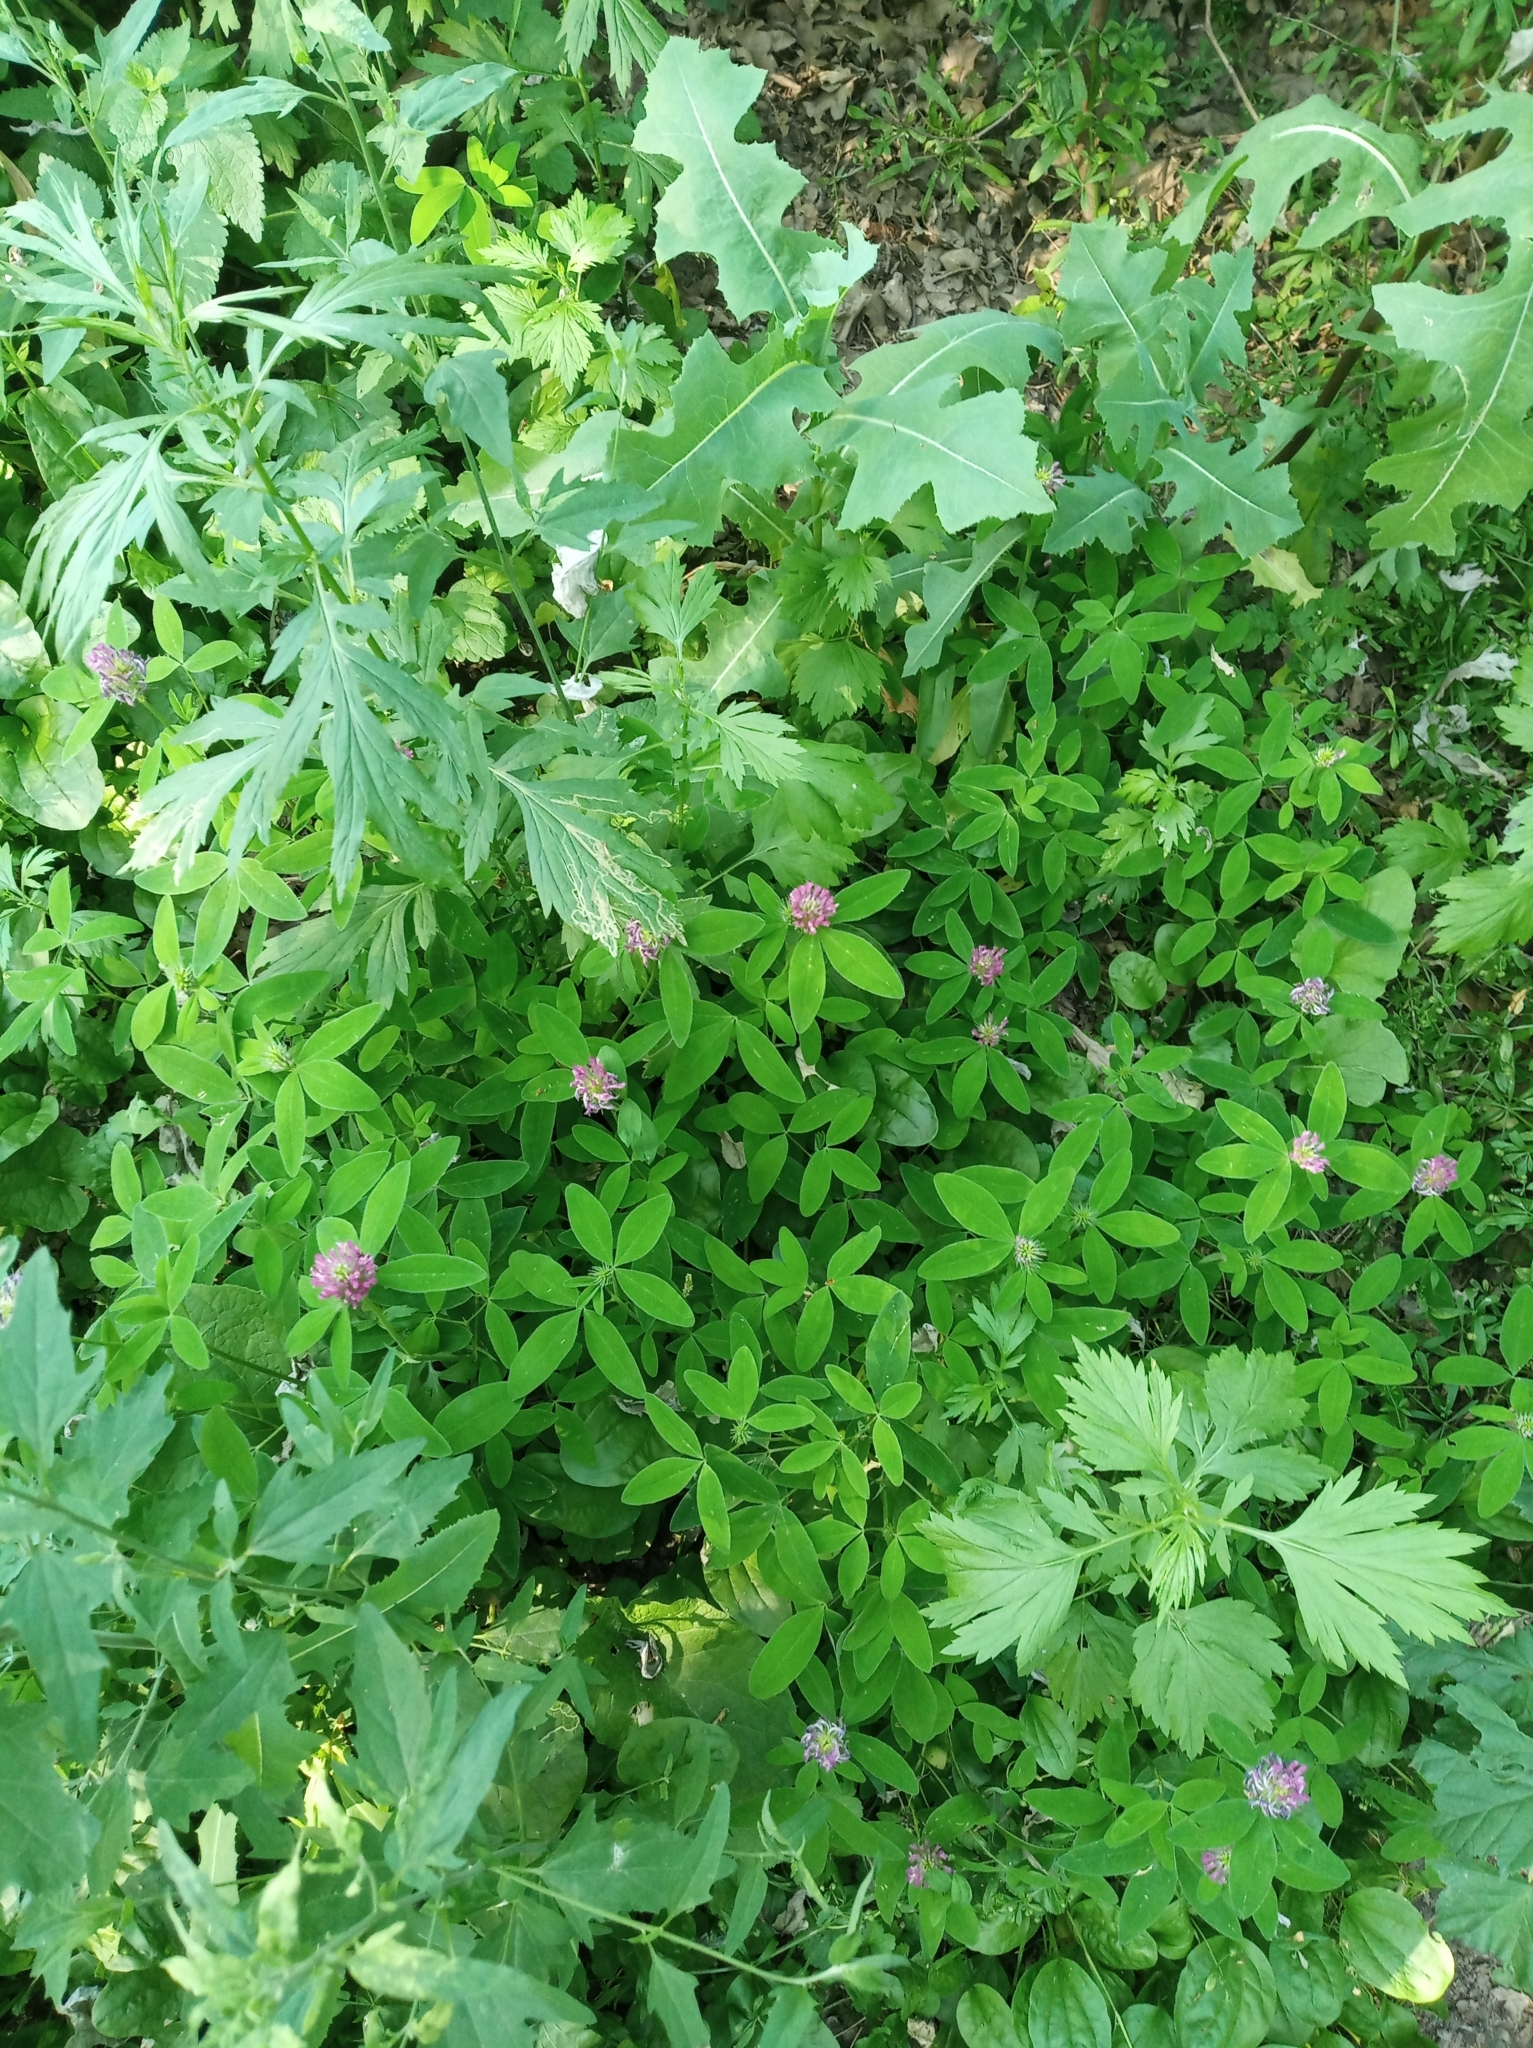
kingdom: Plantae
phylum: Tracheophyta
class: Magnoliopsida
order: Fabales
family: Fabaceae
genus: Trifolium
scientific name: Trifolium medium
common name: Zigzag clover
